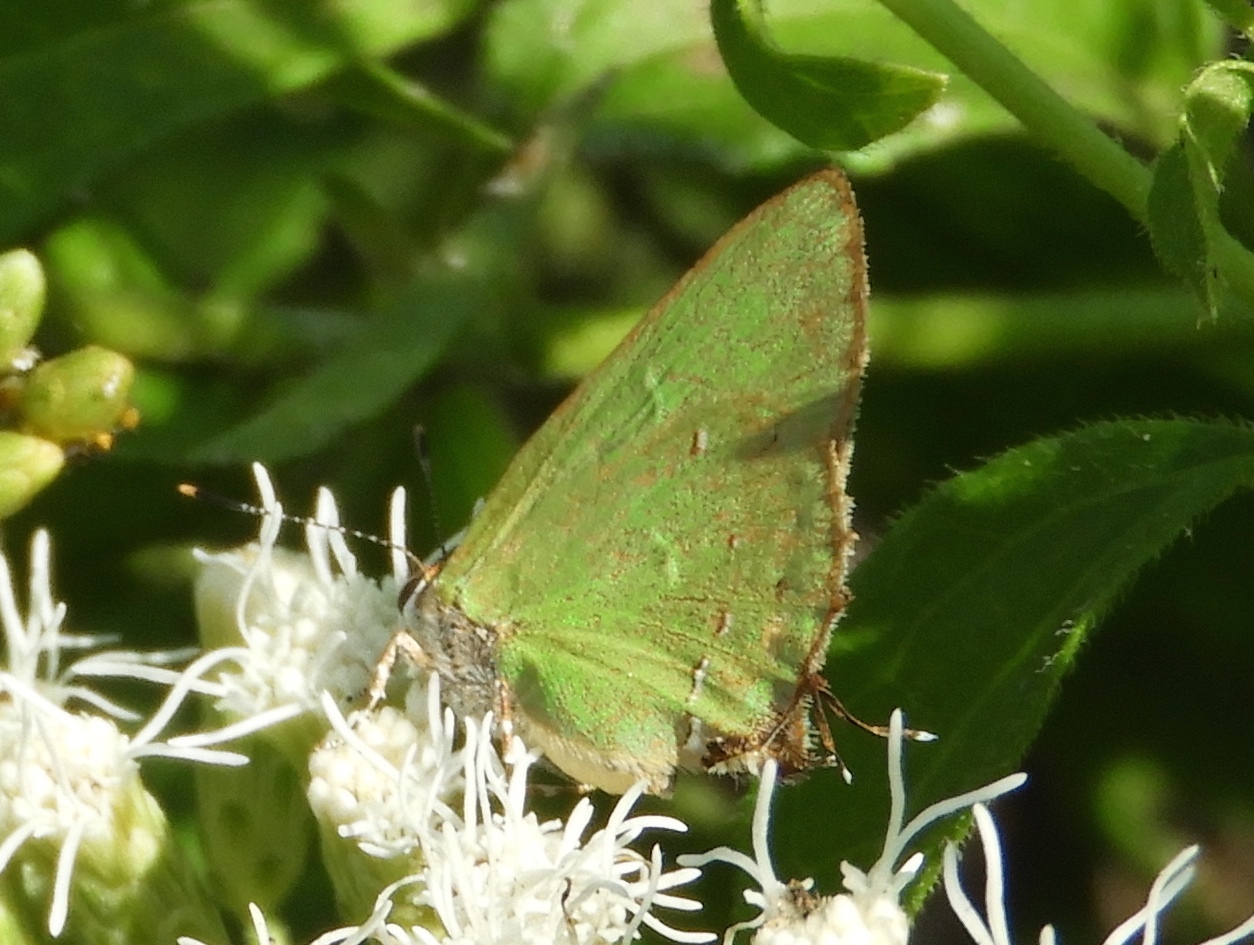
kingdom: Animalia
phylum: Arthropoda
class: Insecta
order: Lepidoptera
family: Lycaenidae
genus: Cyanophrys
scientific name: Cyanophrys
